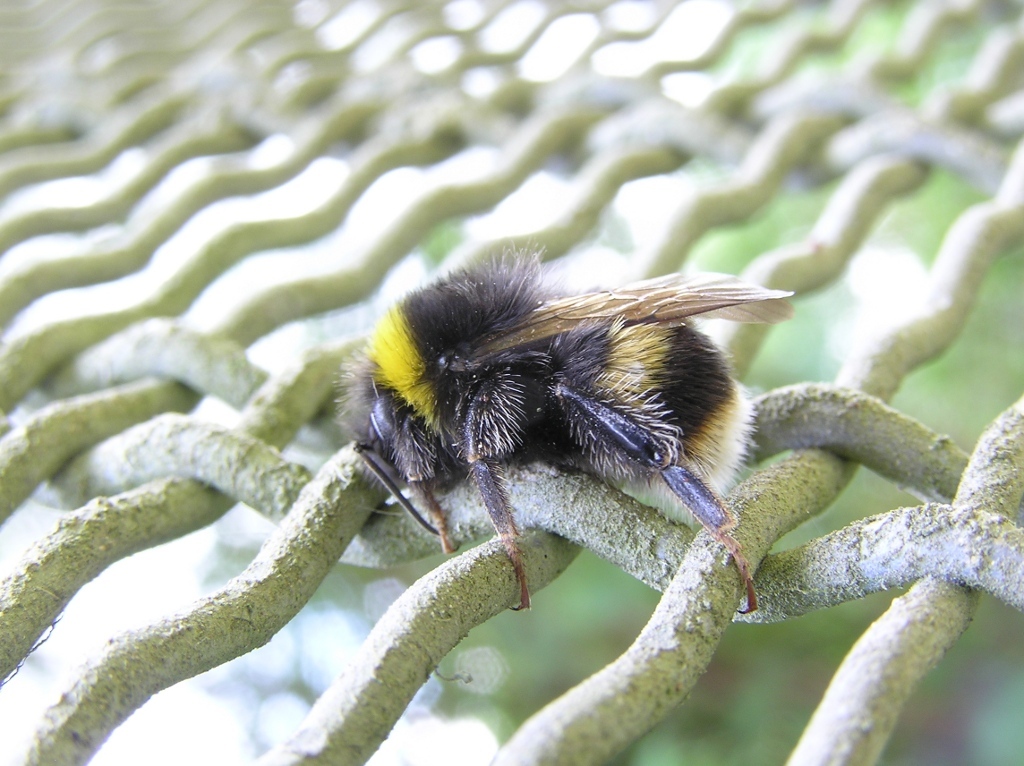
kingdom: Animalia
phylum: Arthropoda
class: Insecta
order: Hymenoptera
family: Apidae
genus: Bombus
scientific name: Bombus terrestris
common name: Buff-tailed bumblebee
